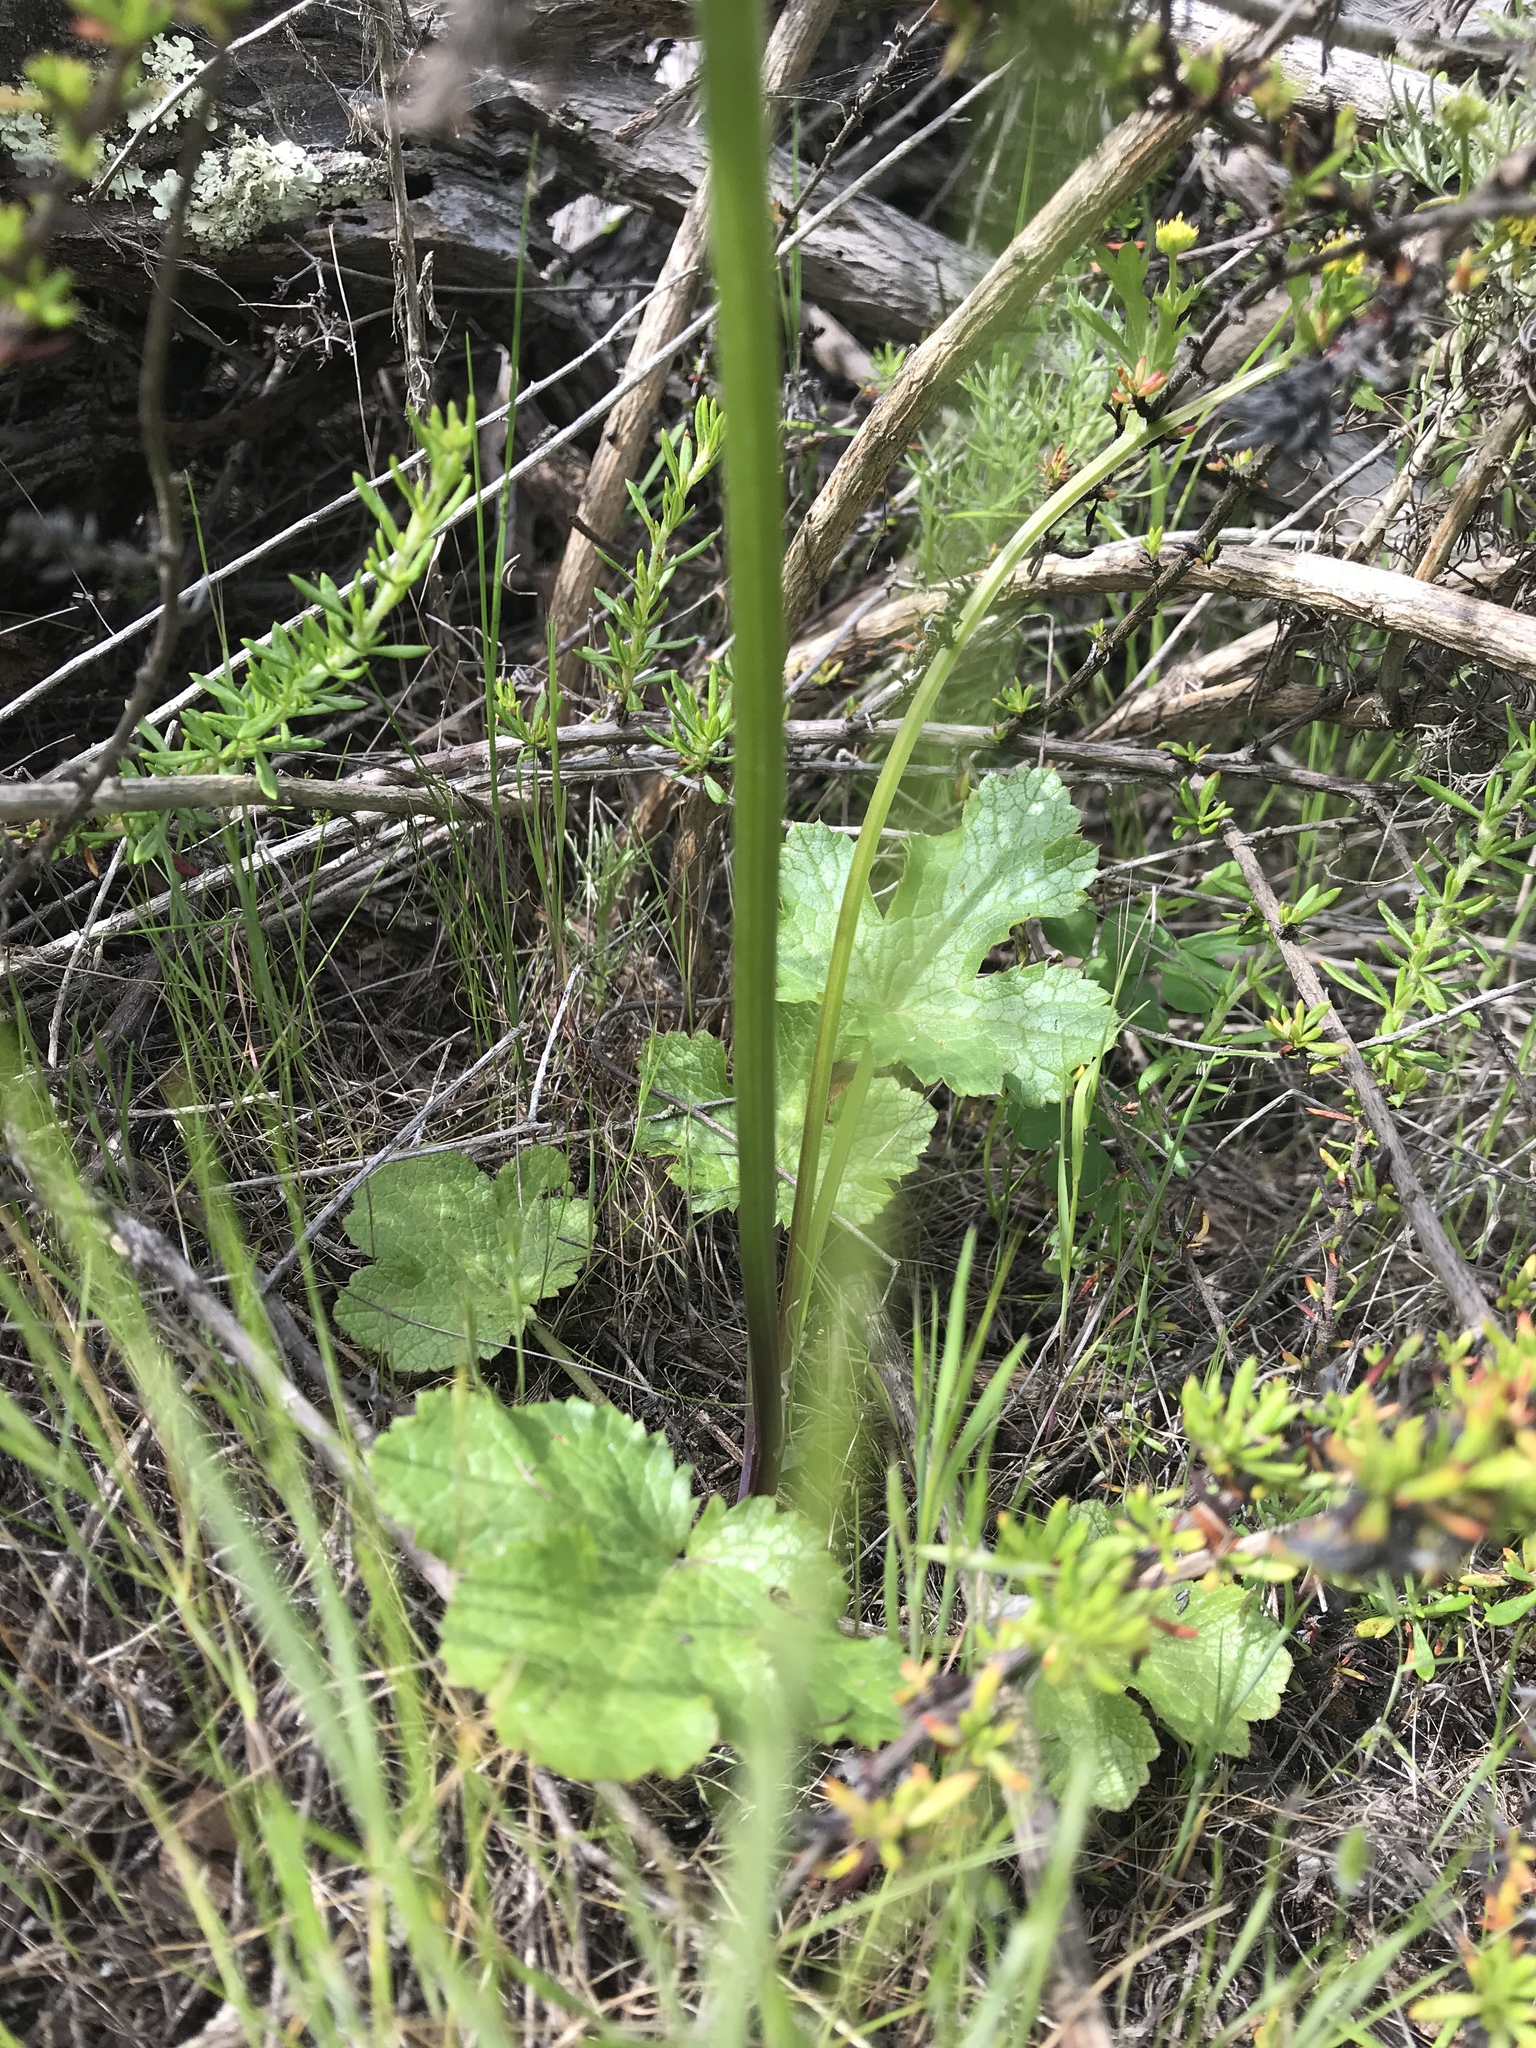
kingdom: Plantae
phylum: Tracheophyta
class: Magnoliopsida
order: Apiales
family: Apiaceae
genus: Sanicula
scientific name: Sanicula crassicaulis
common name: Western snakeroot
